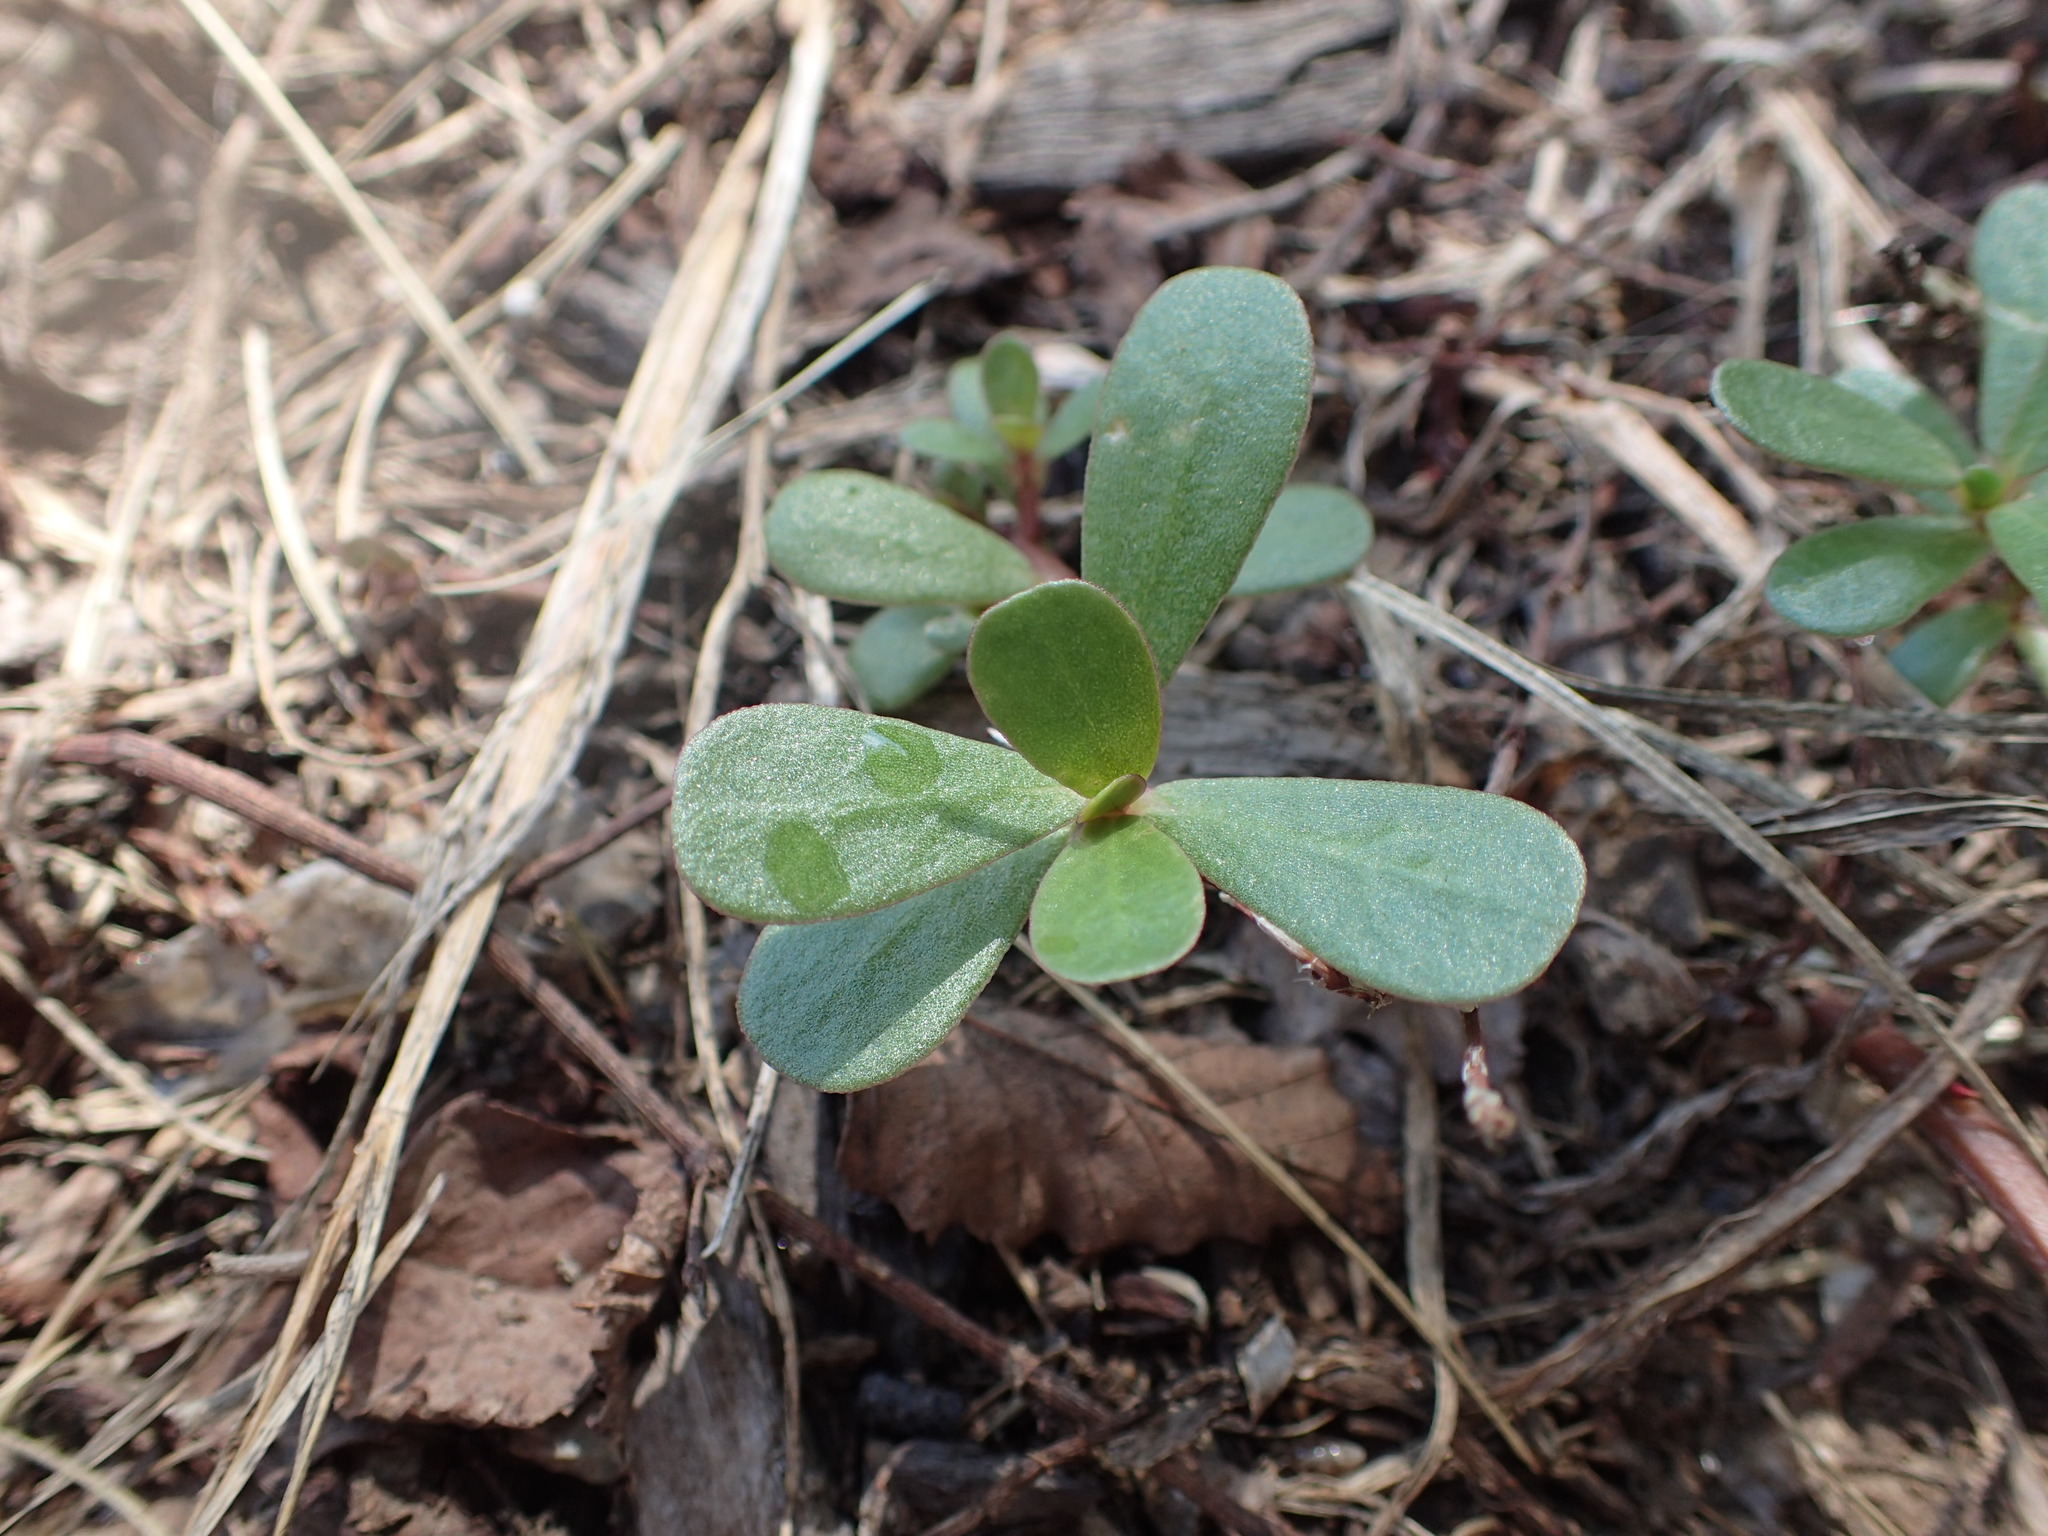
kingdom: Plantae
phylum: Tracheophyta
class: Magnoliopsida
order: Caryophyllales
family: Portulacaceae
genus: Portulaca
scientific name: Portulaca oleracea
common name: Common purslane
